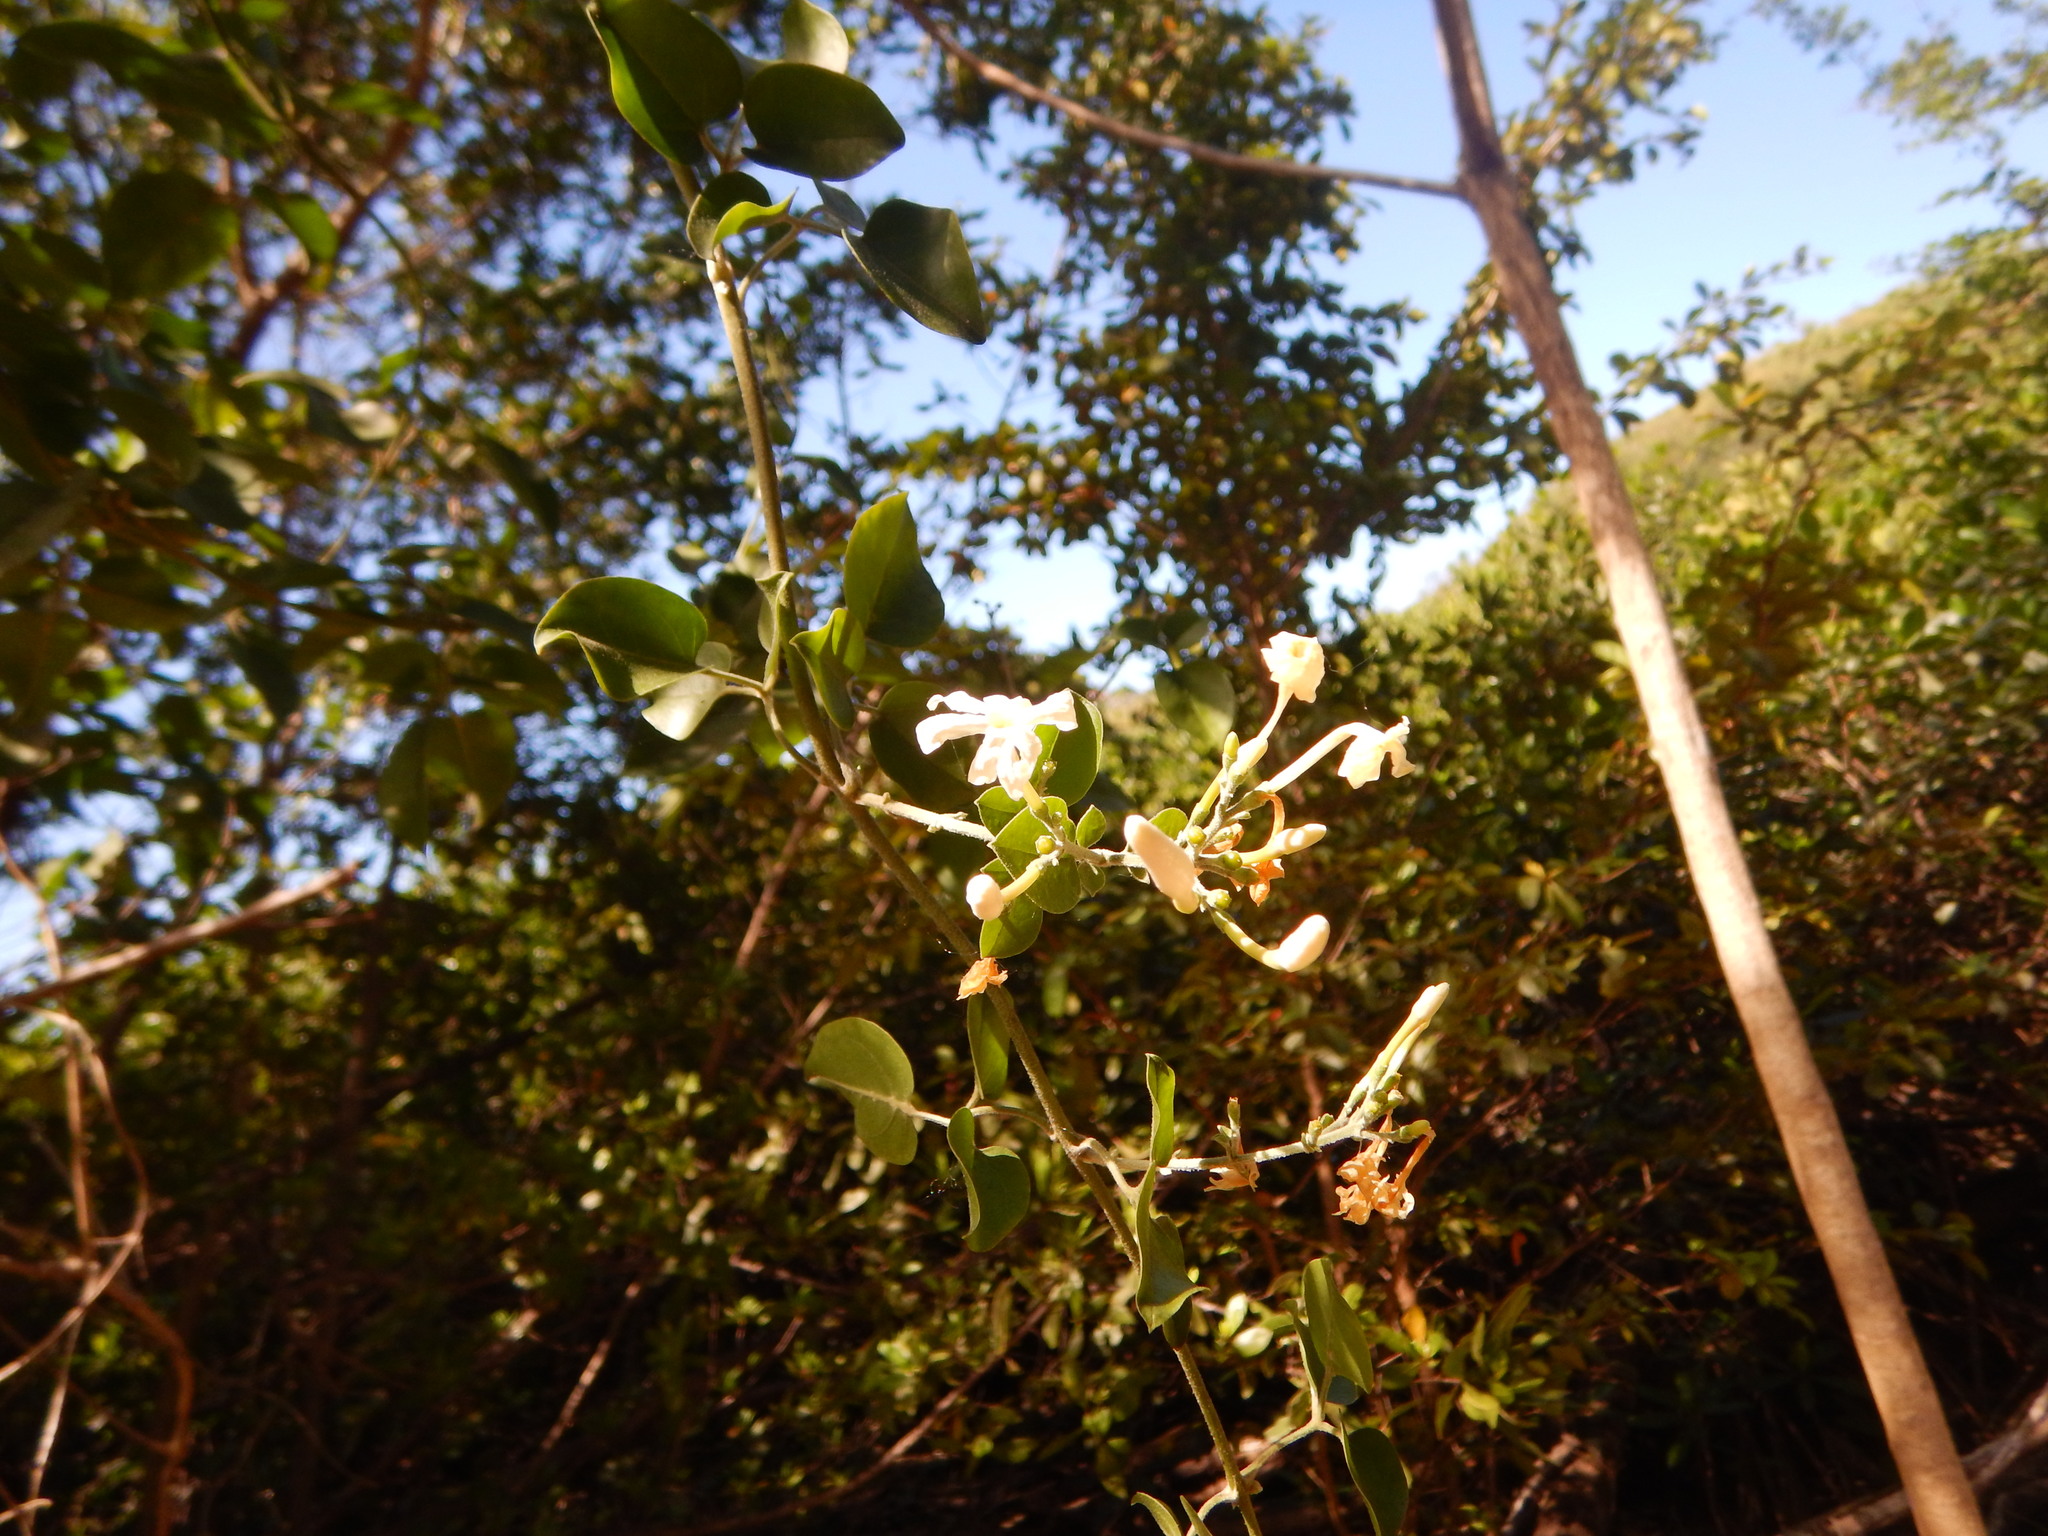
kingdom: Plantae
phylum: Tracheophyta
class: Magnoliopsida
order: Lamiales
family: Oleaceae
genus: Jasminum
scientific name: Jasminum fluminense
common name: Brazilian jasmine
